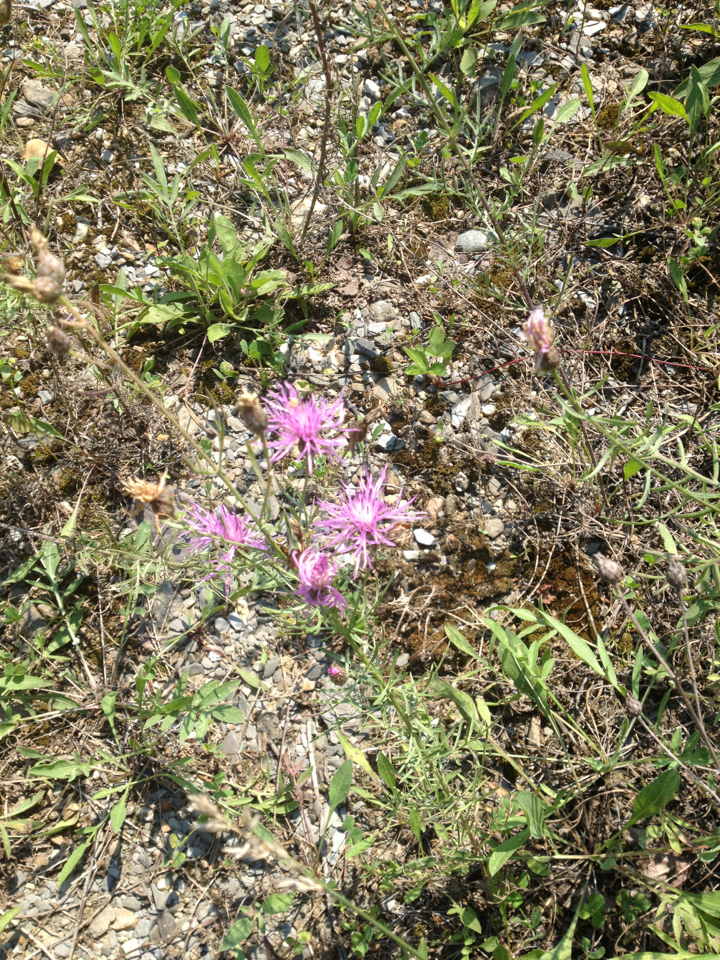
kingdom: Plantae
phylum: Tracheophyta
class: Magnoliopsida
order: Asterales
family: Asteraceae
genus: Centaurea
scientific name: Centaurea stoebe
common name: Spotted knapweed
